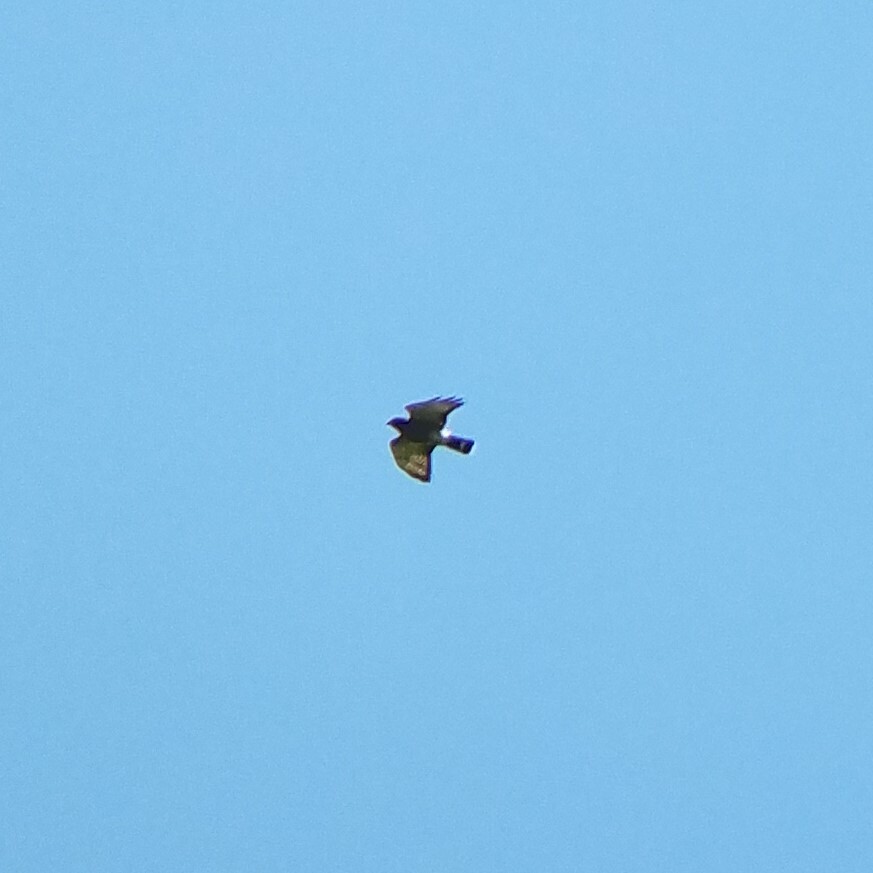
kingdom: Animalia
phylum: Chordata
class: Aves
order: Accipitriformes
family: Accipitridae
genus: Buteo
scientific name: Buteo platypterus
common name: Broad-winged hawk
